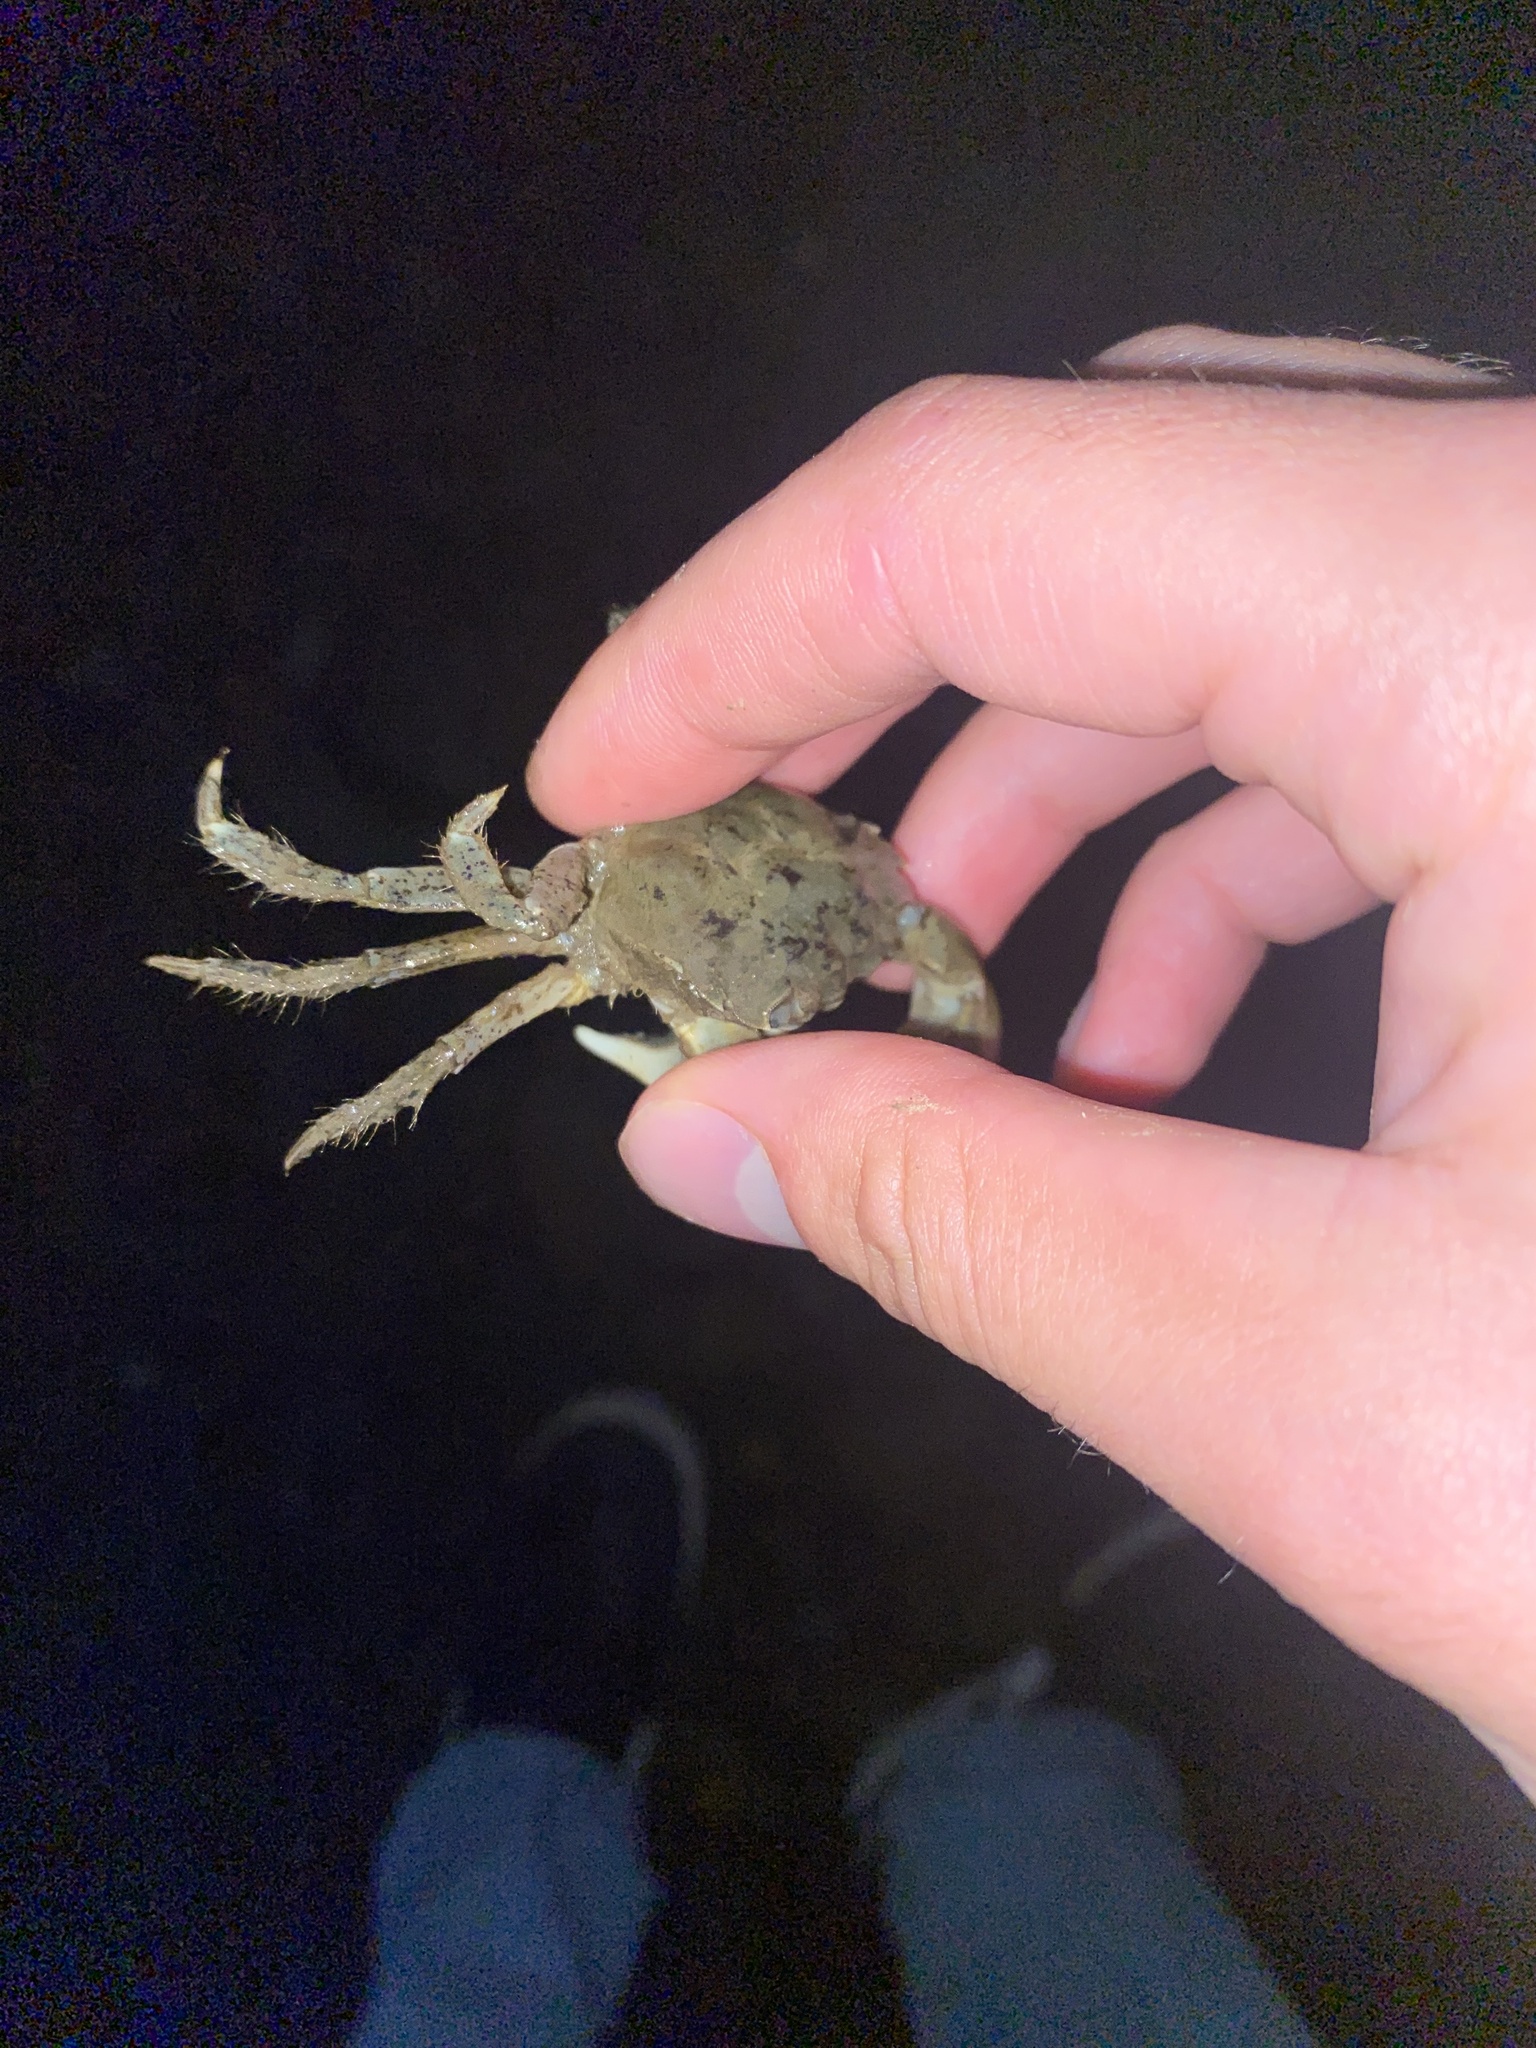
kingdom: Animalia
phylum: Arthropoda
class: Malacostraca
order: Decapoda
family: Varunidae
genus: Hemigrapsus
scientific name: Hemigrapsus oregonensis
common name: Yellow shore crab
